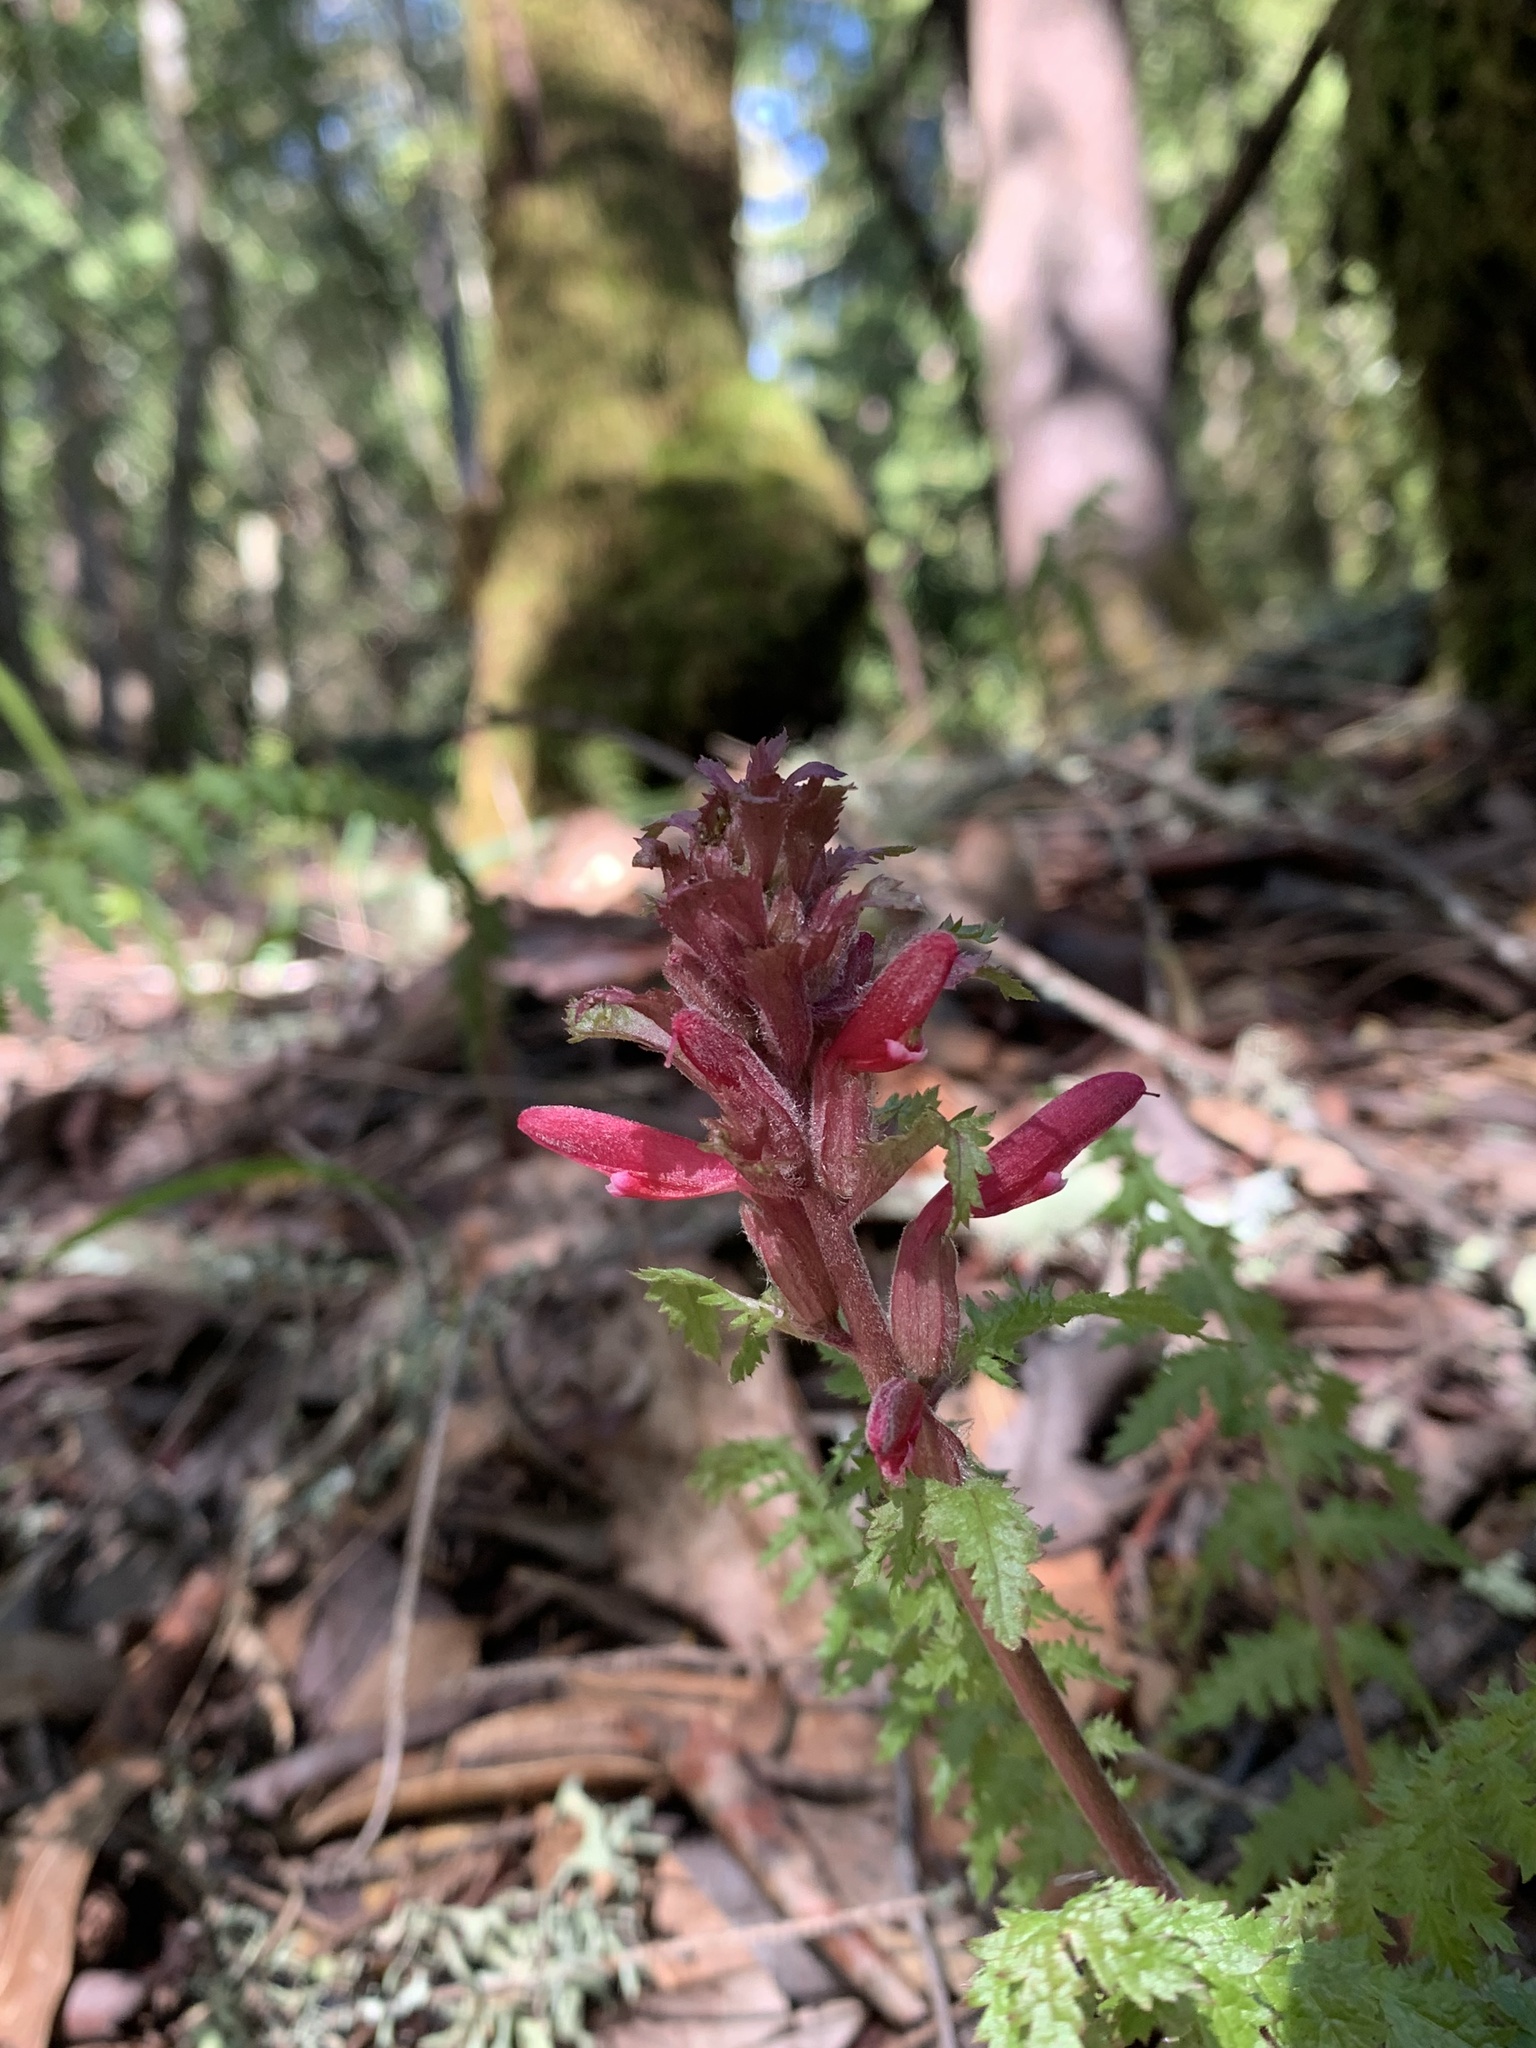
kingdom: Plantae
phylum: Tracheophyta
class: Magnoliopsida
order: Lamiales
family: Orobanchaceae
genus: Pedicularis
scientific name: Pedicularis densiflora
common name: Indian warrior
